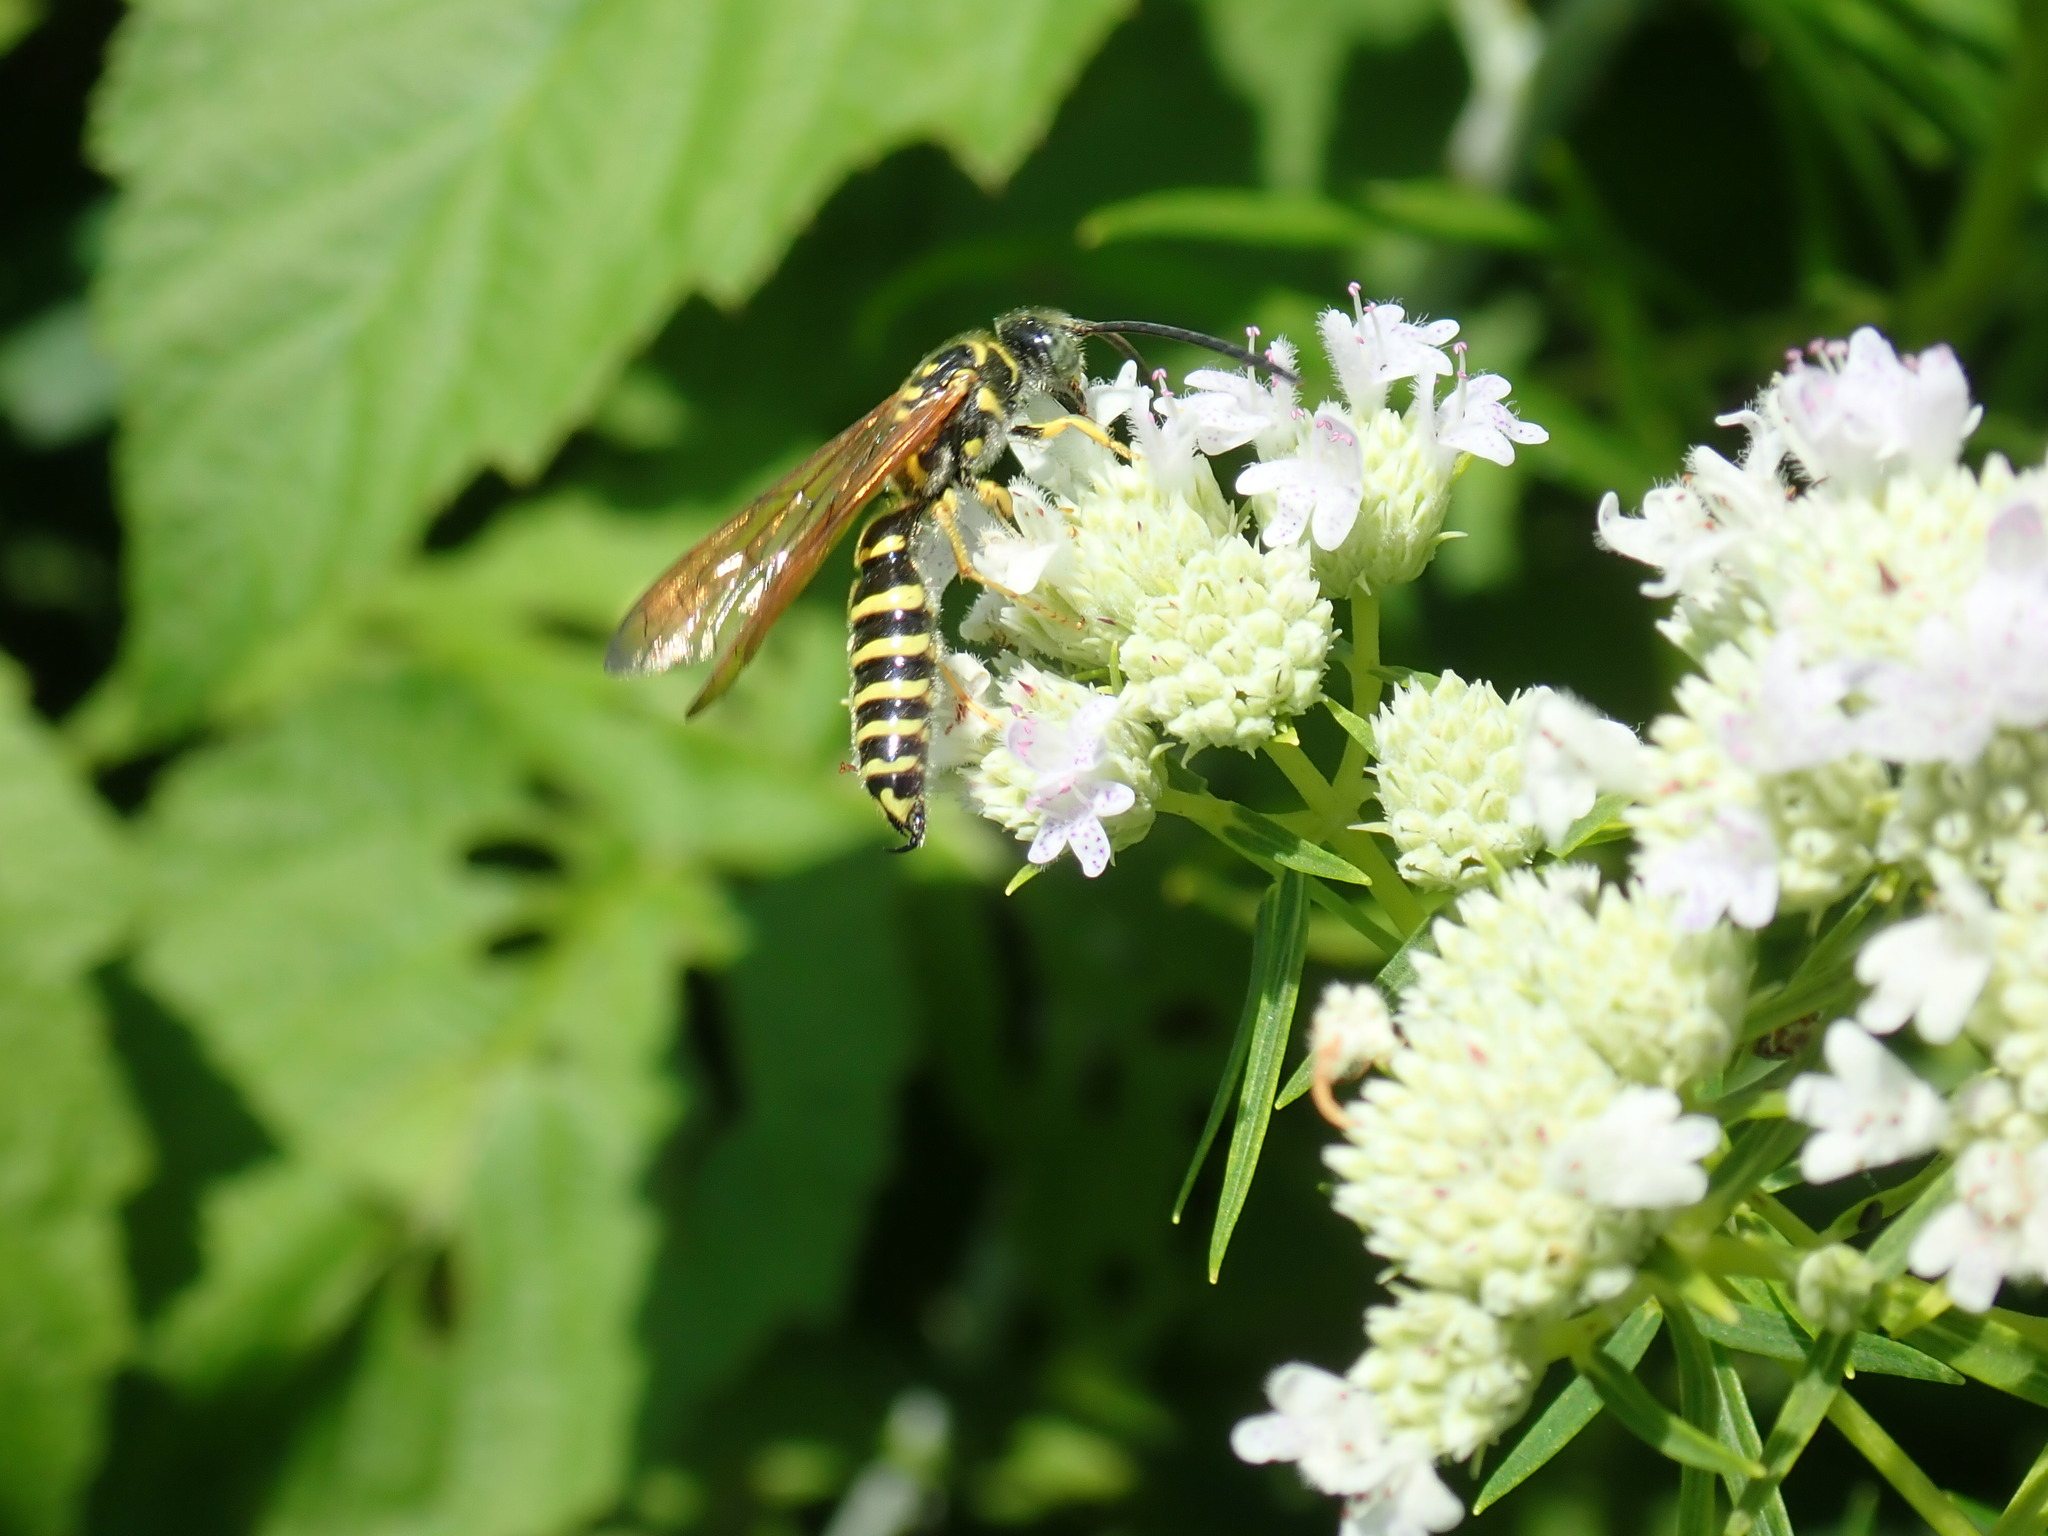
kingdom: Animalia
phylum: Arthropoda
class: Insecta
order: Hymenoptera
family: Tiphiidae
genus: Myzinum
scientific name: Myzinum quinquecinctum
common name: Five-banded thynnid wasp
